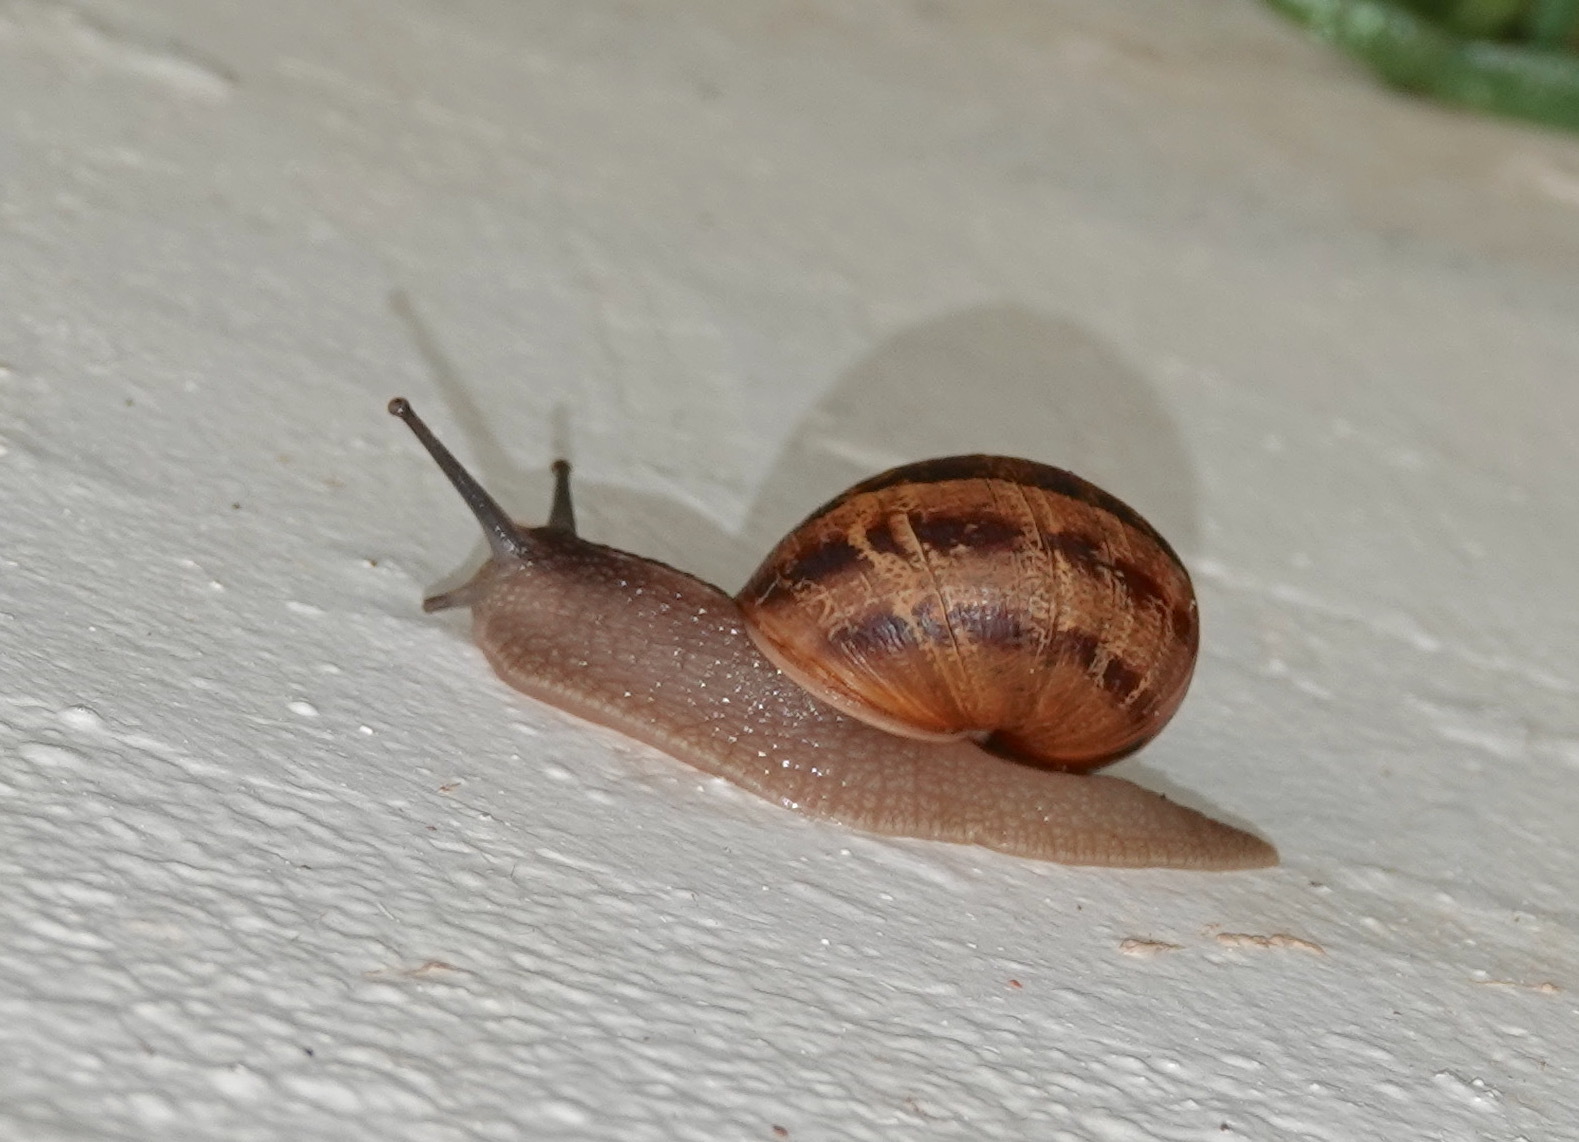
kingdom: Animalia
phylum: Mollusca
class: Gastropoda
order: Stylommatophora
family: Helicidae
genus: Cornu
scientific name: Cornu aspersum
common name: Brown garden snail
